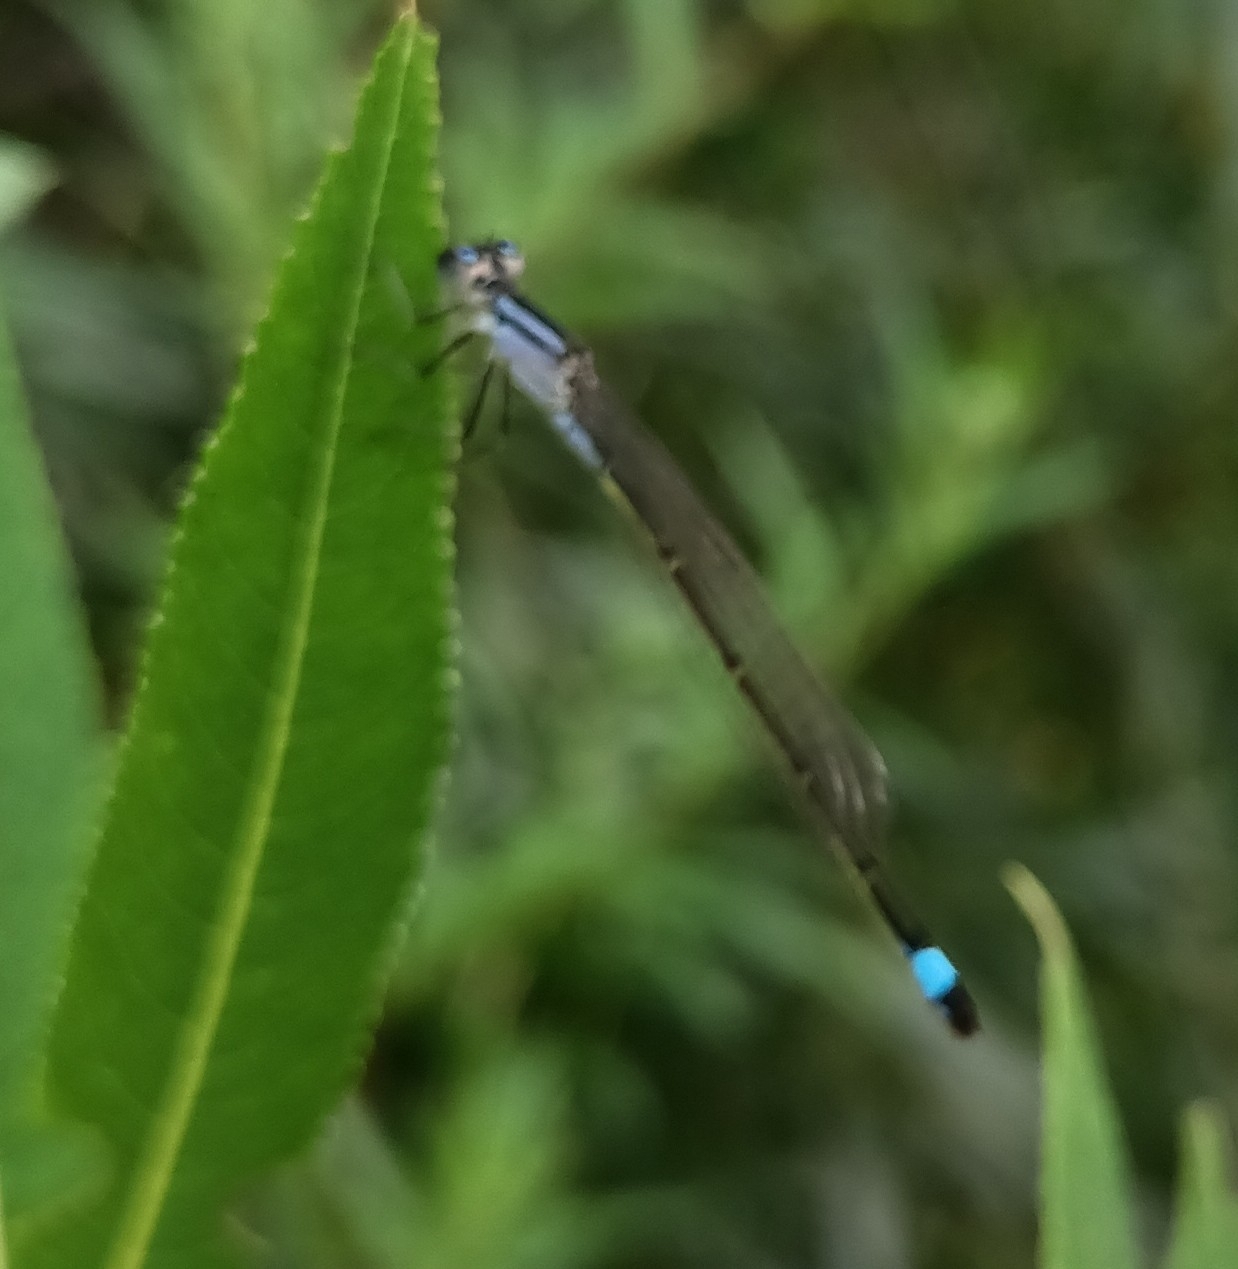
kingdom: Animalia
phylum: Arthropoda
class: Insecta
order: Odonata
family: Coenagrionidae
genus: Ischnura
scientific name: Ischnura elegans
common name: Blue-tailed damselfly
